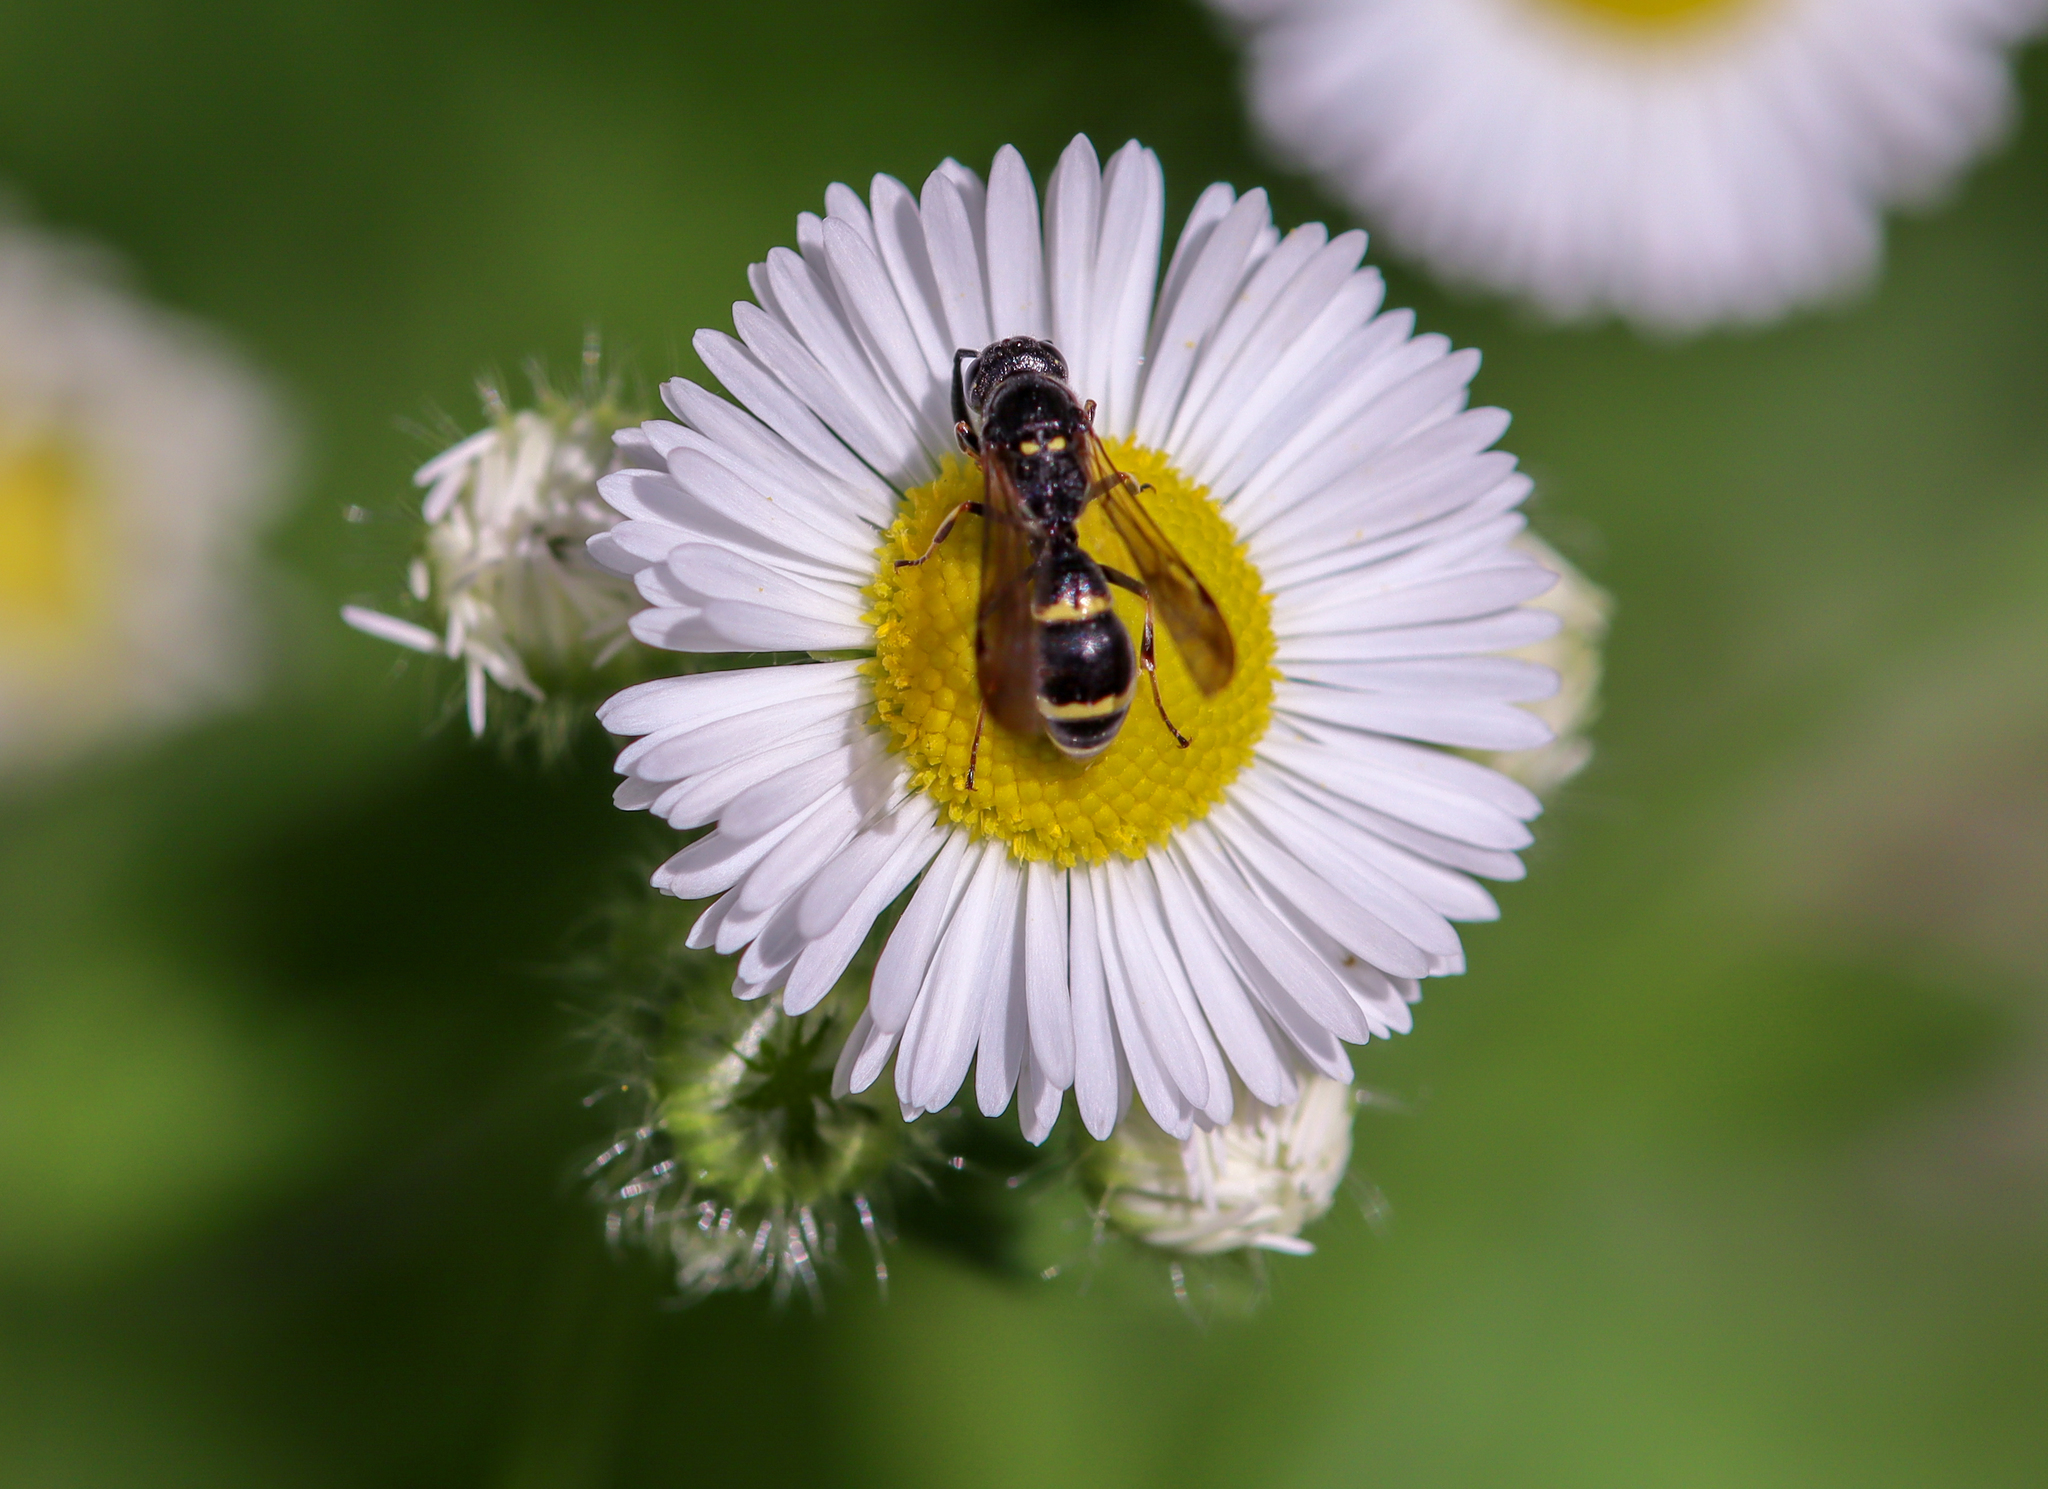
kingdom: Animalia
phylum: Arthropoda
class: Insecta
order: Hymenoptera
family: Eumenidae
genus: Symmorphus
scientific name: Symmorphus
